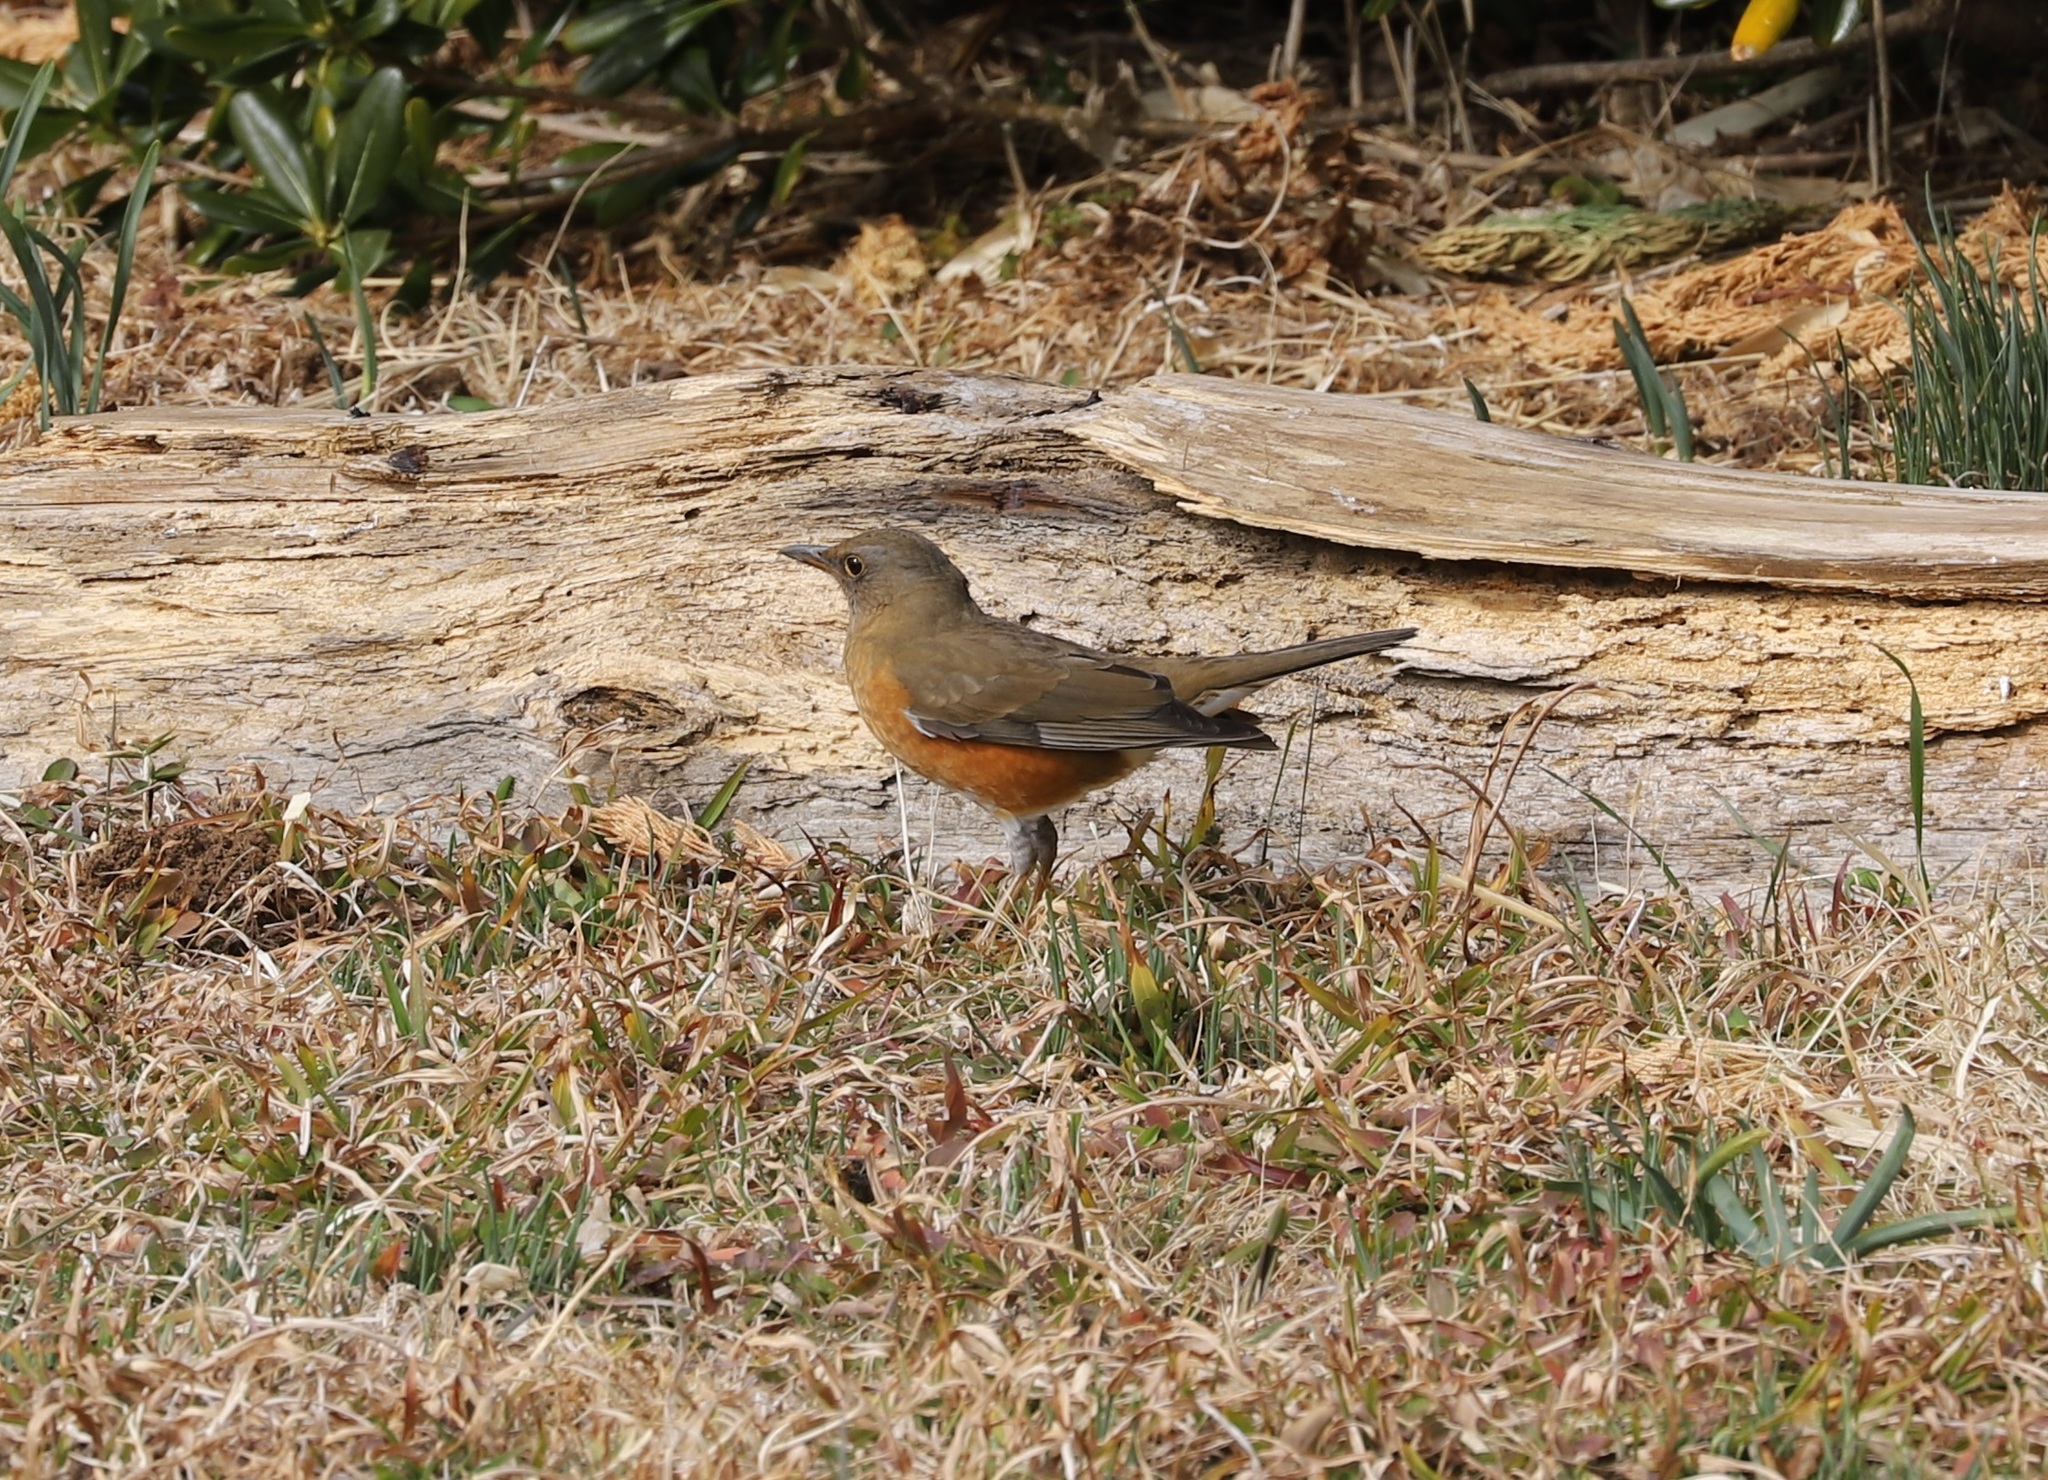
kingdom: Animalia
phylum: Chordata
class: Aves
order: Passeriformes
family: Turdidae
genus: Turdus
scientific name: Turdus chrysolaus
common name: Brown-headed thrush
